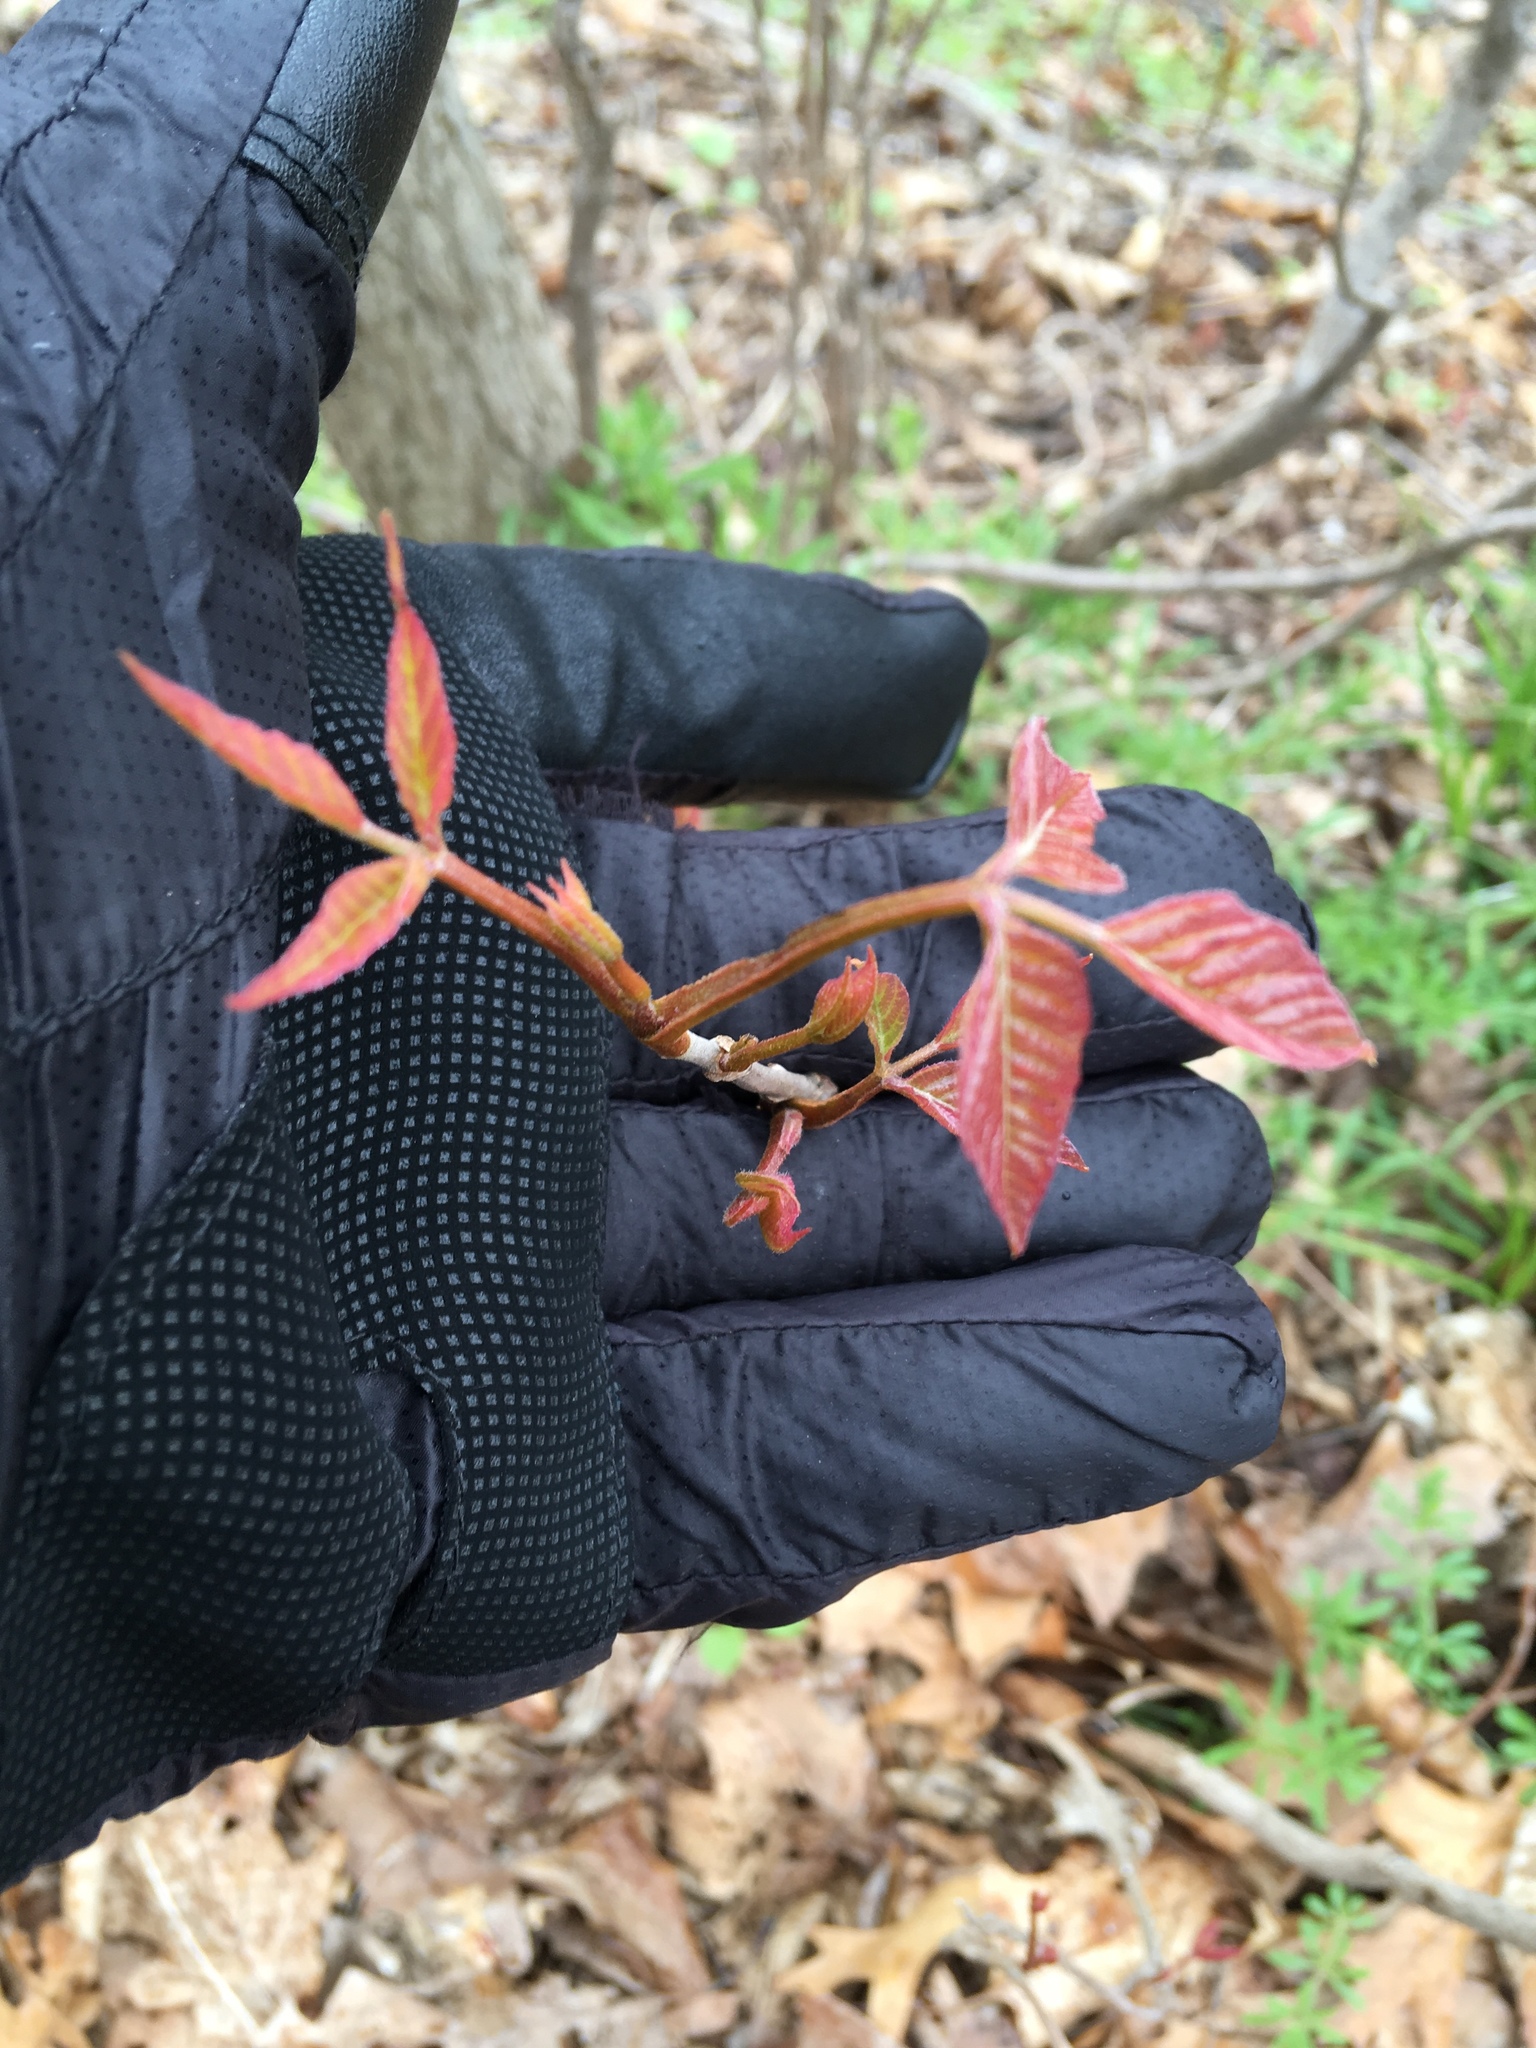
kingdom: Plantae
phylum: Tracheophyta
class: Magnoliopsida
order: Sapindales
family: Anacardiaceae
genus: Toxicodendron
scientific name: Toxicodendron radicans
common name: Poison ivy
